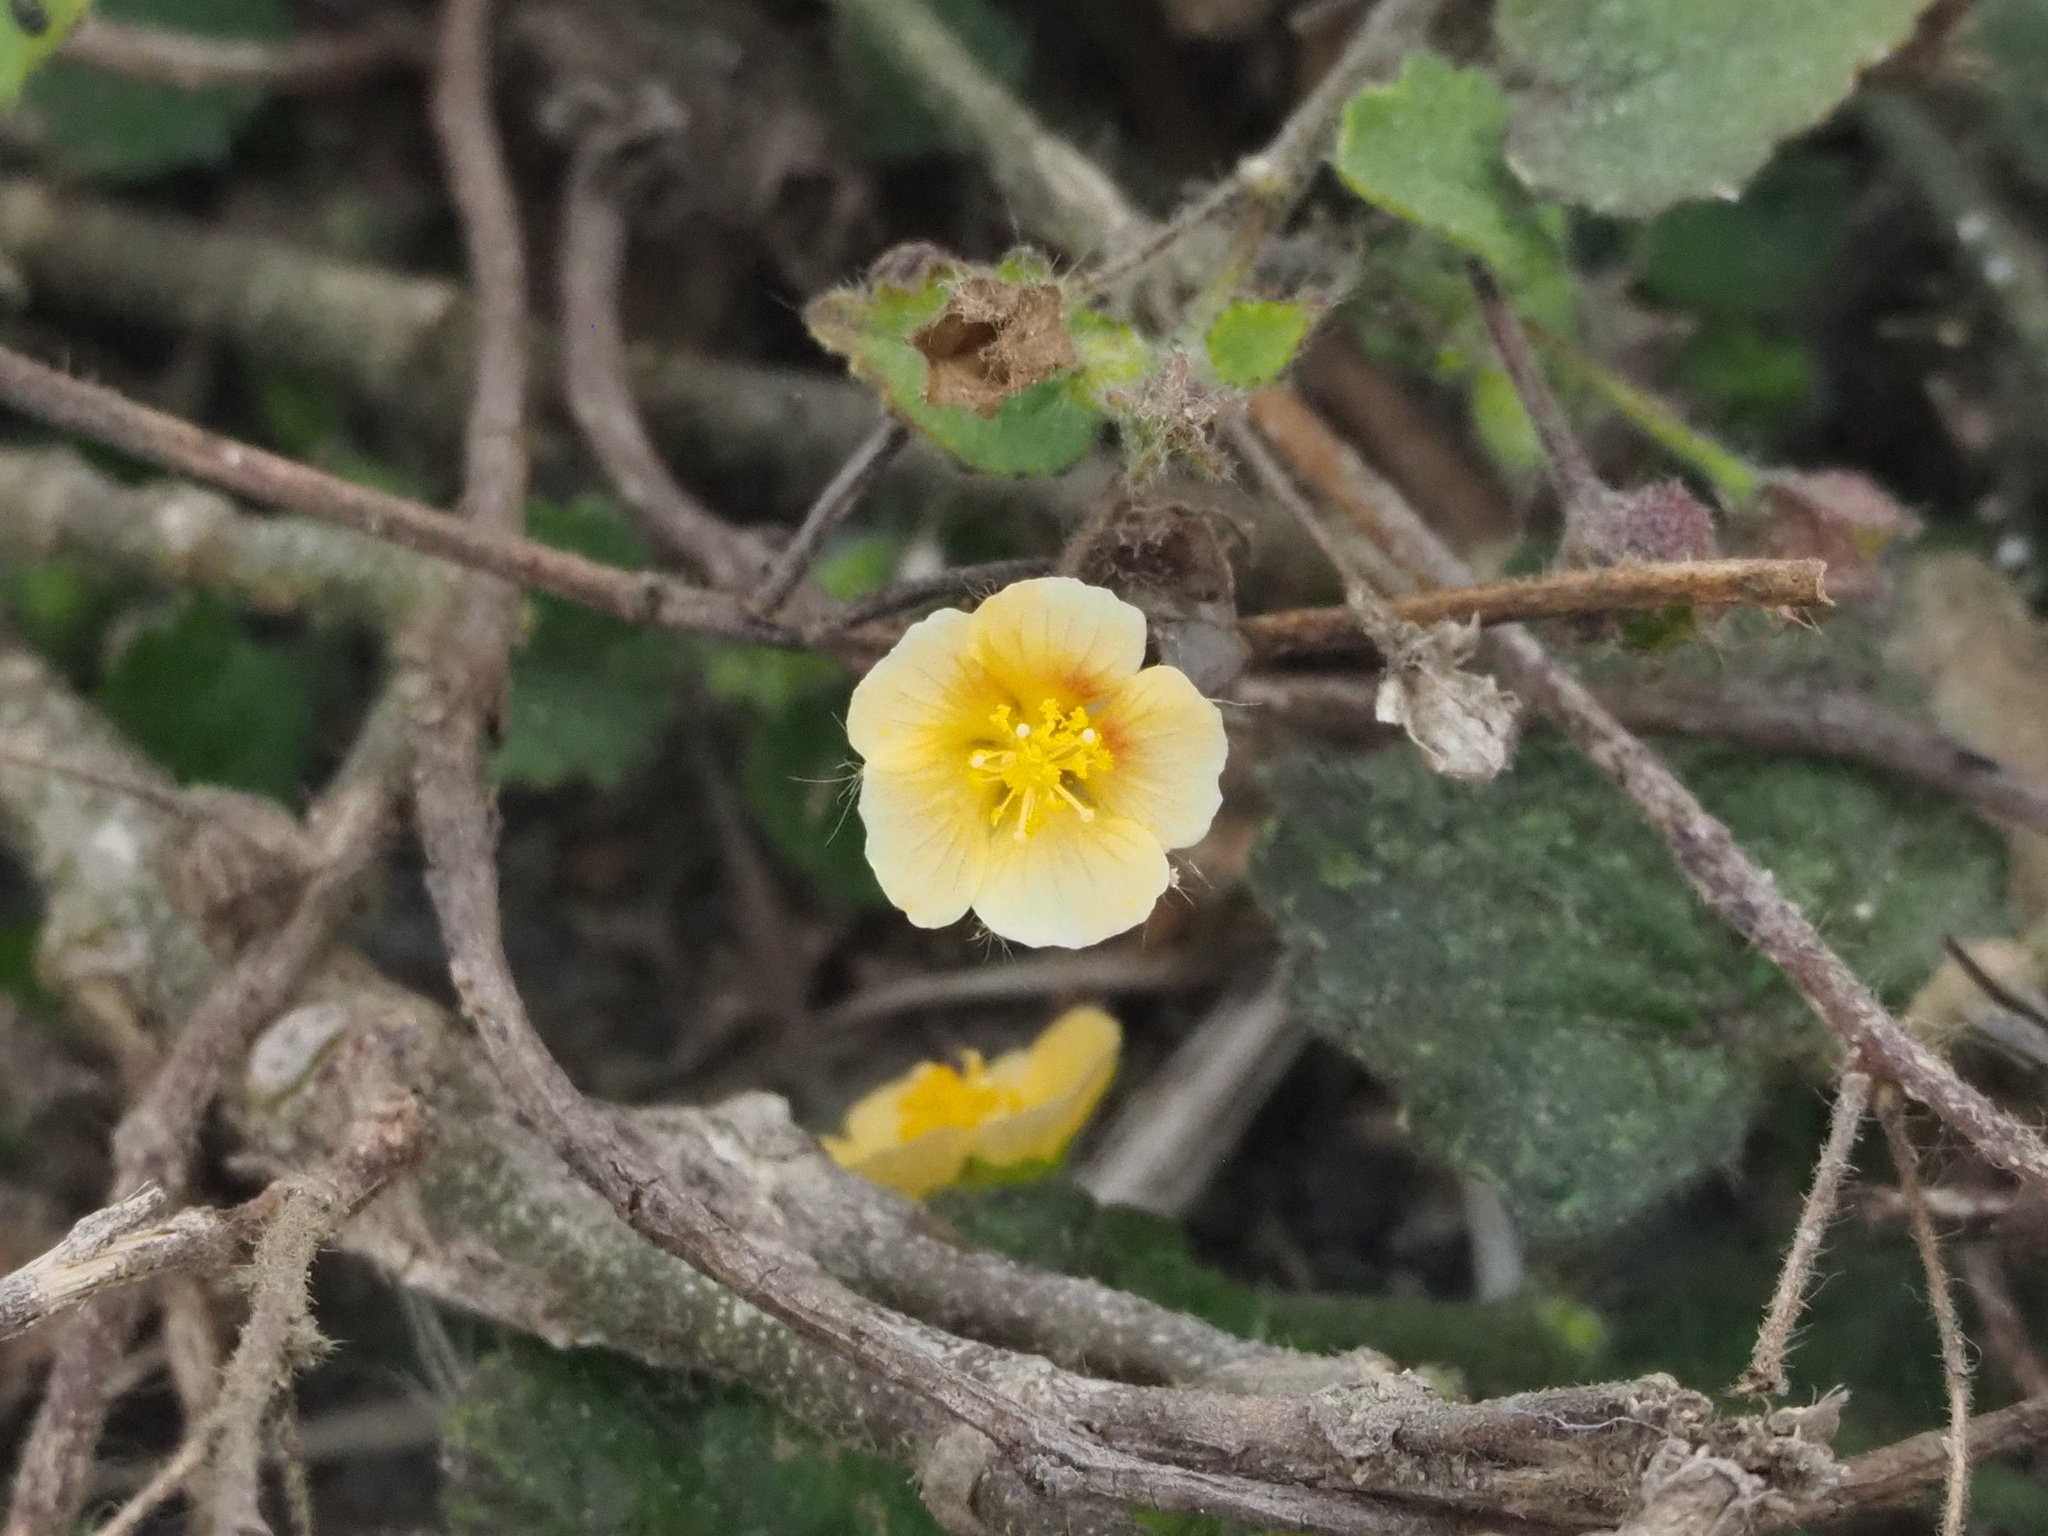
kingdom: Plantae
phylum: Tracheophyta
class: Magnoliopsida
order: Malvales
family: Malvaceae
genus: Sida
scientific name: Sida cordata
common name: Long-stalk sida
